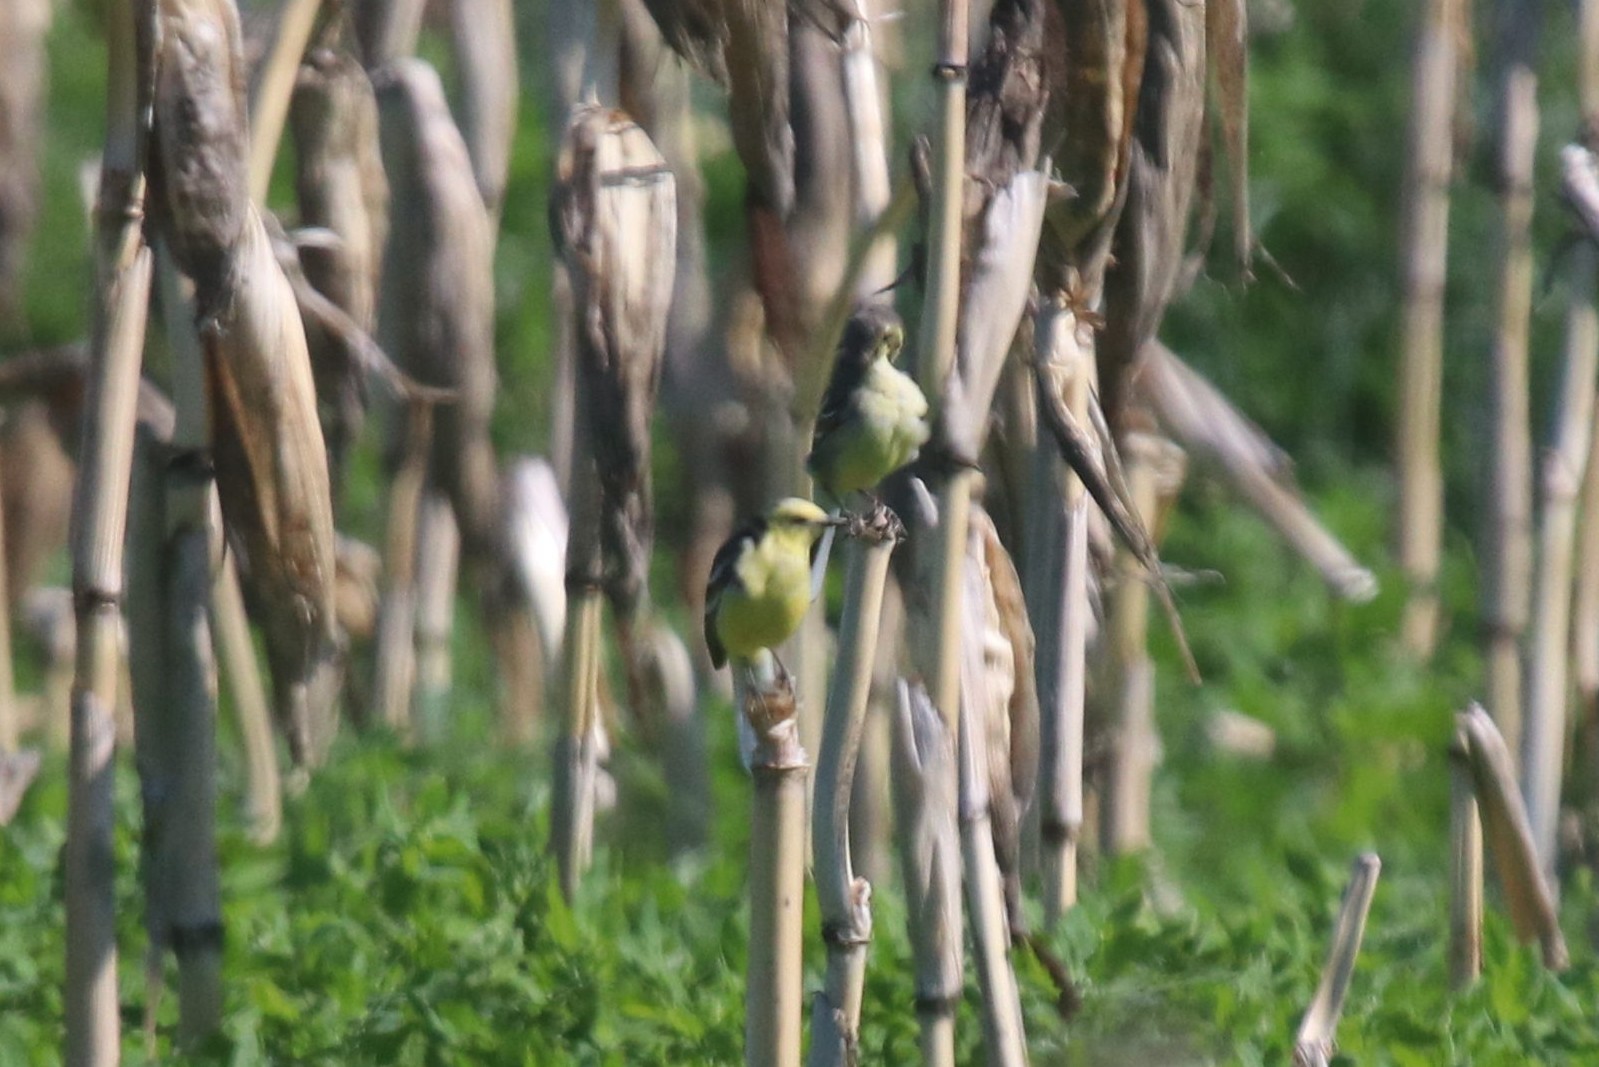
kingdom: Animalia
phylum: Chordata
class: Aves
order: Passeriformes
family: Motacillidae
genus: Motacilla
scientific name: Motacilla citreola
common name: Citrine wagtail
